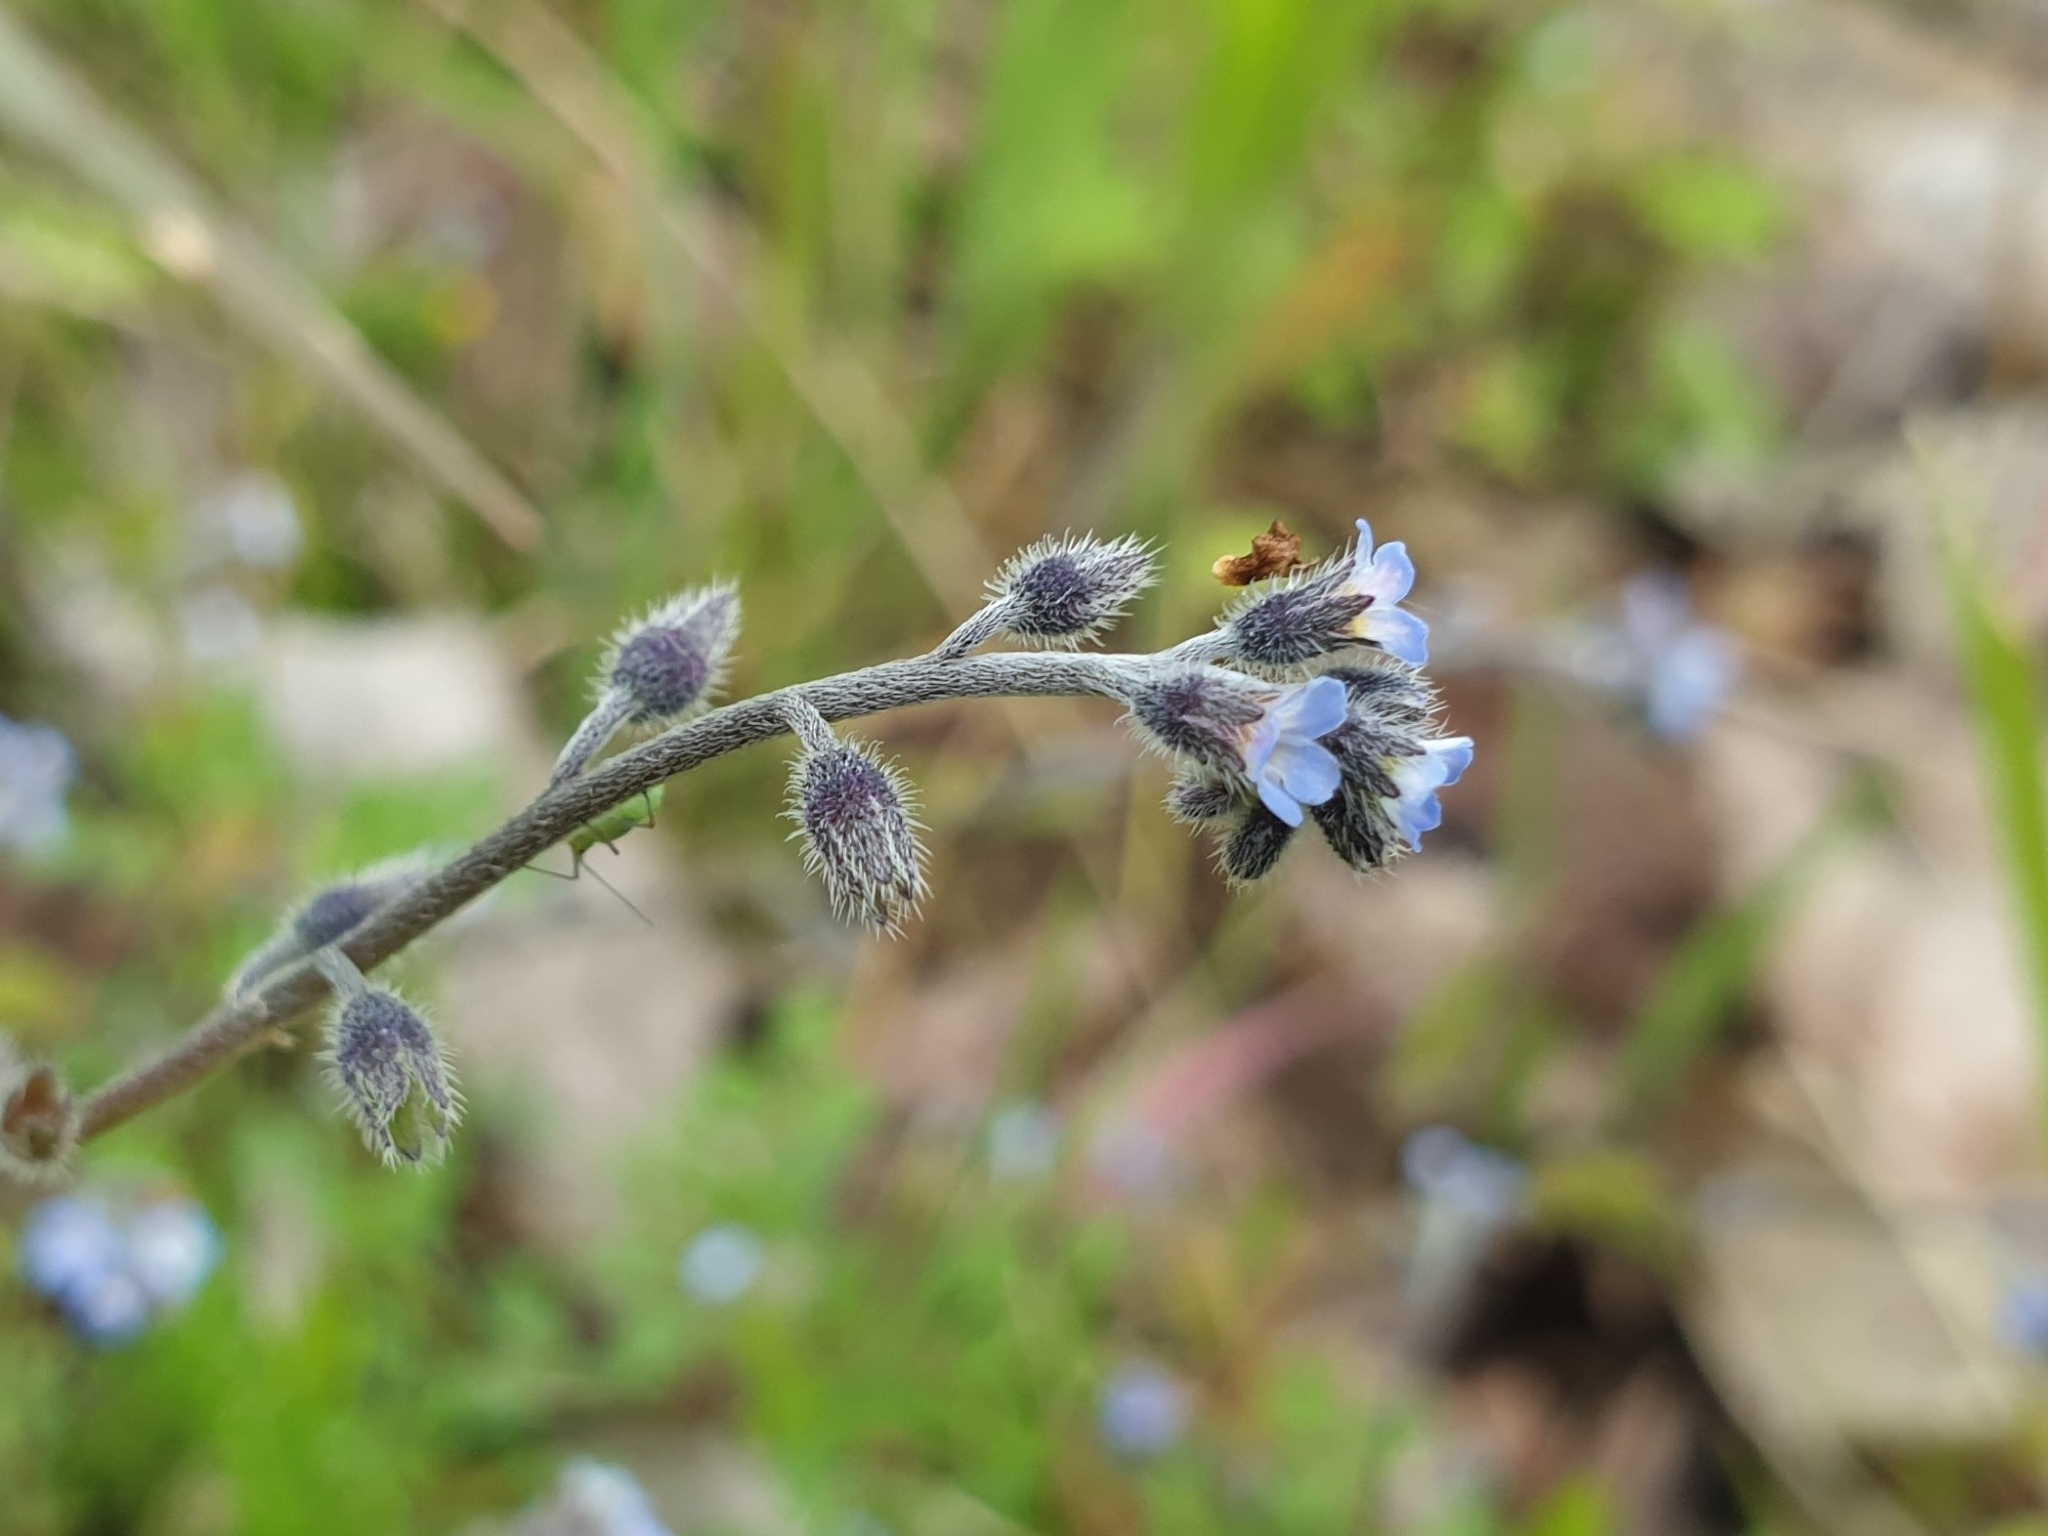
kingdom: Plantae
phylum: Tracheophyta
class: Magnoliopsida
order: Boraginales
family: Boraginaceae
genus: Myosotis
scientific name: Myosotis ramosissima
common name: Early forget-me-not
